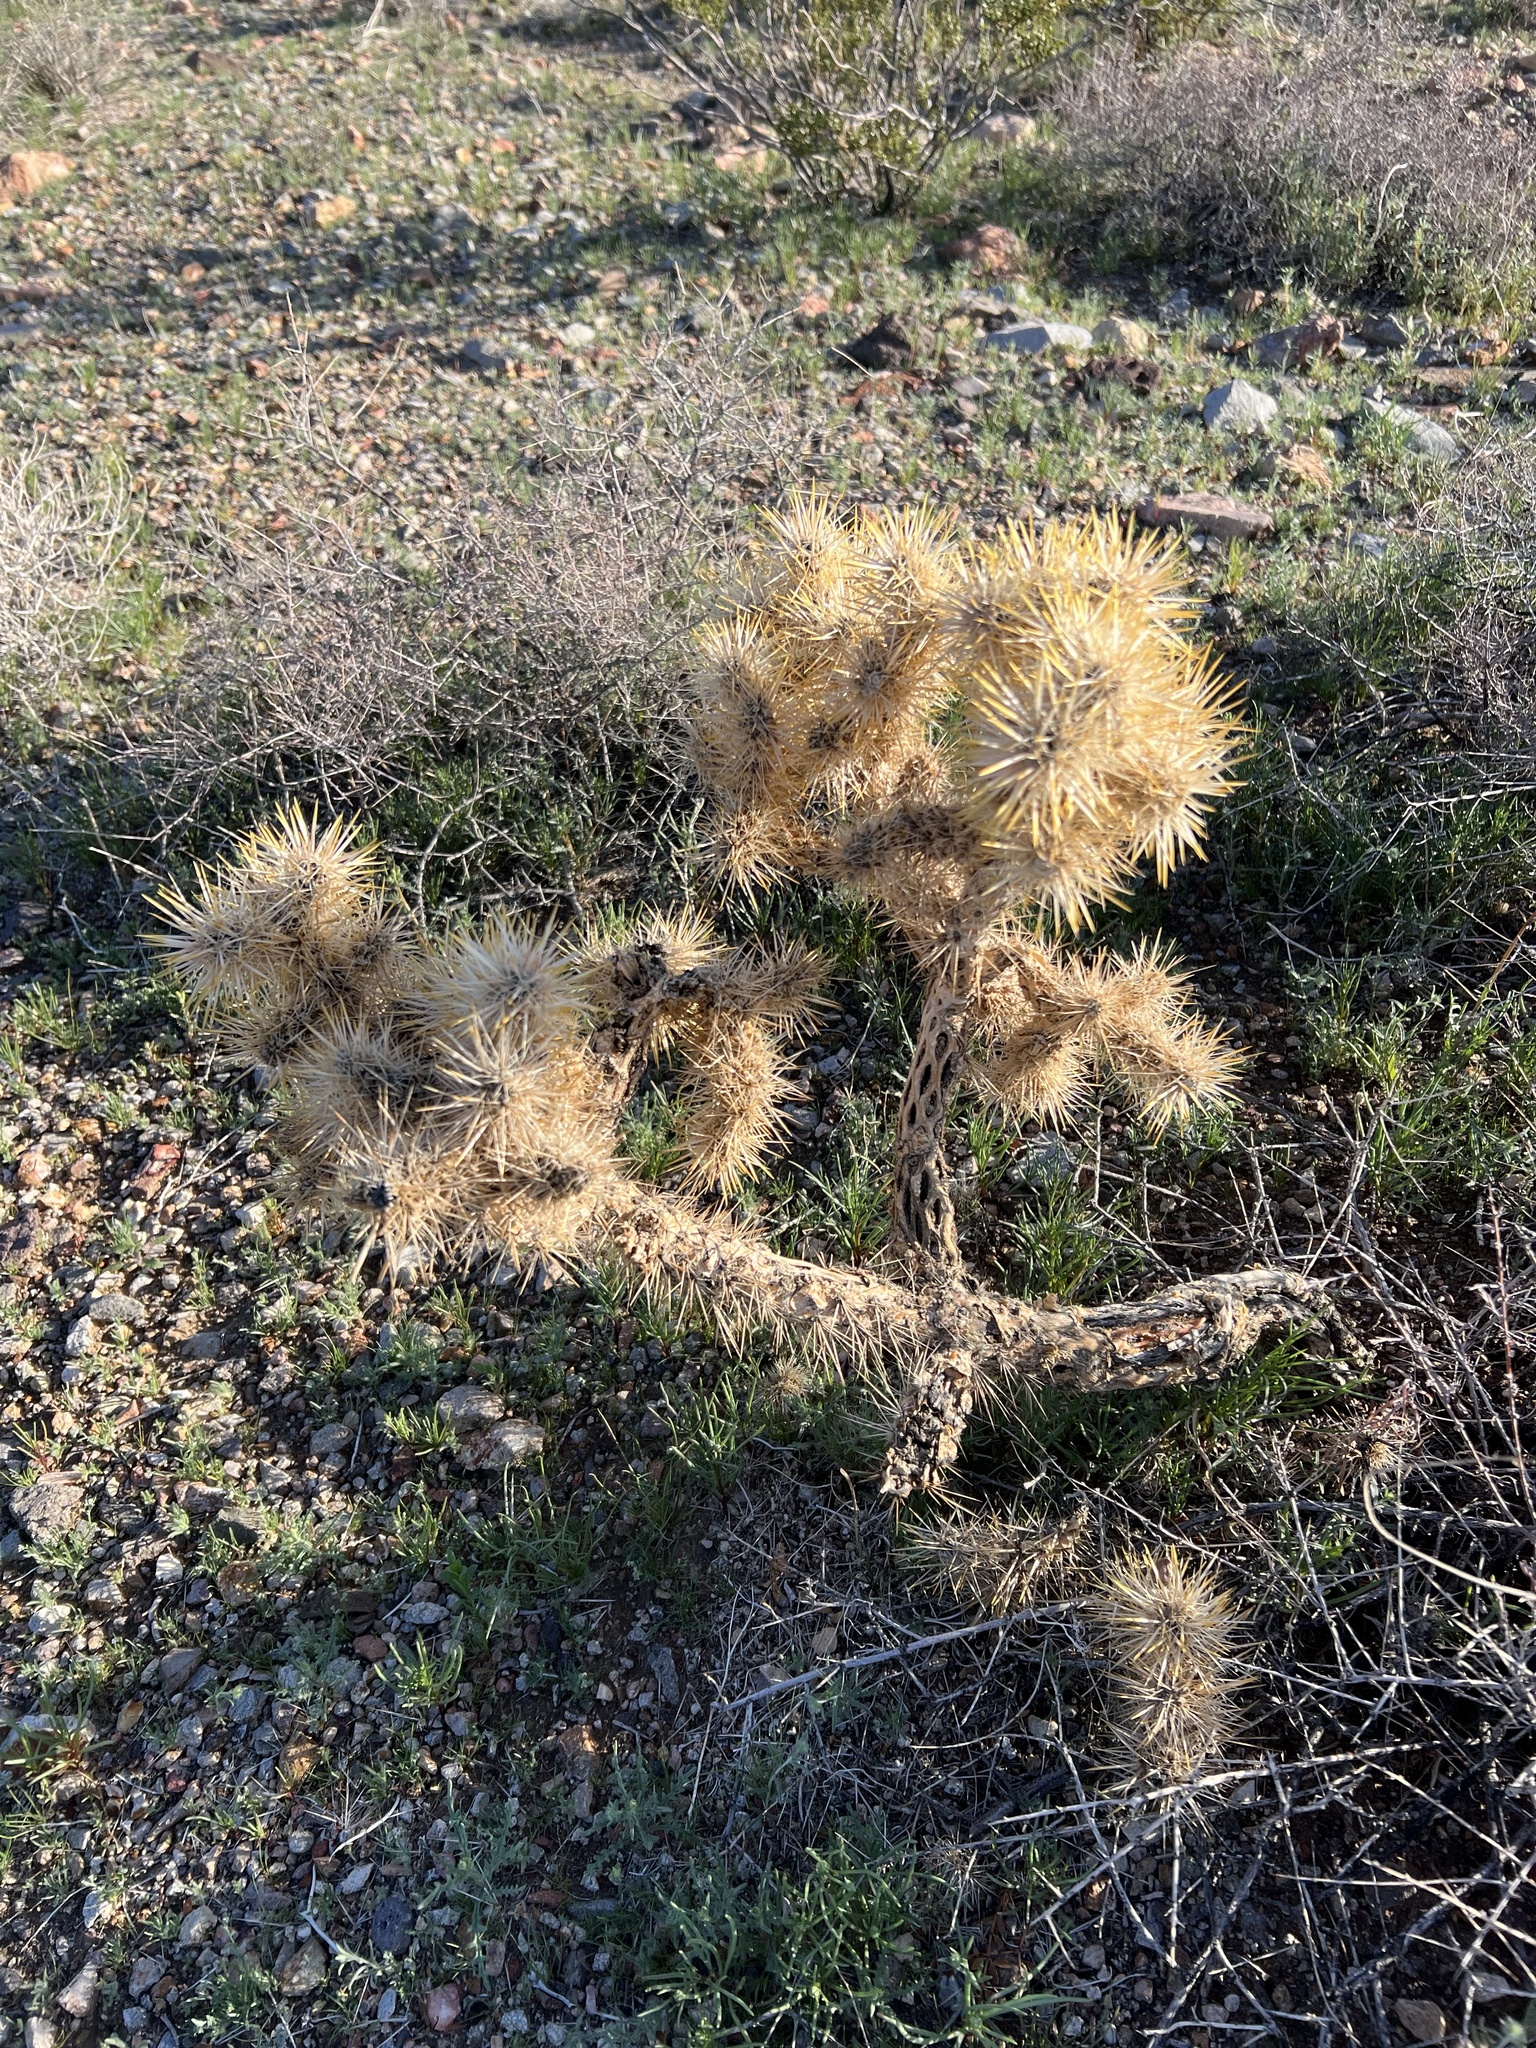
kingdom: Plantae
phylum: Tracheophyta
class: Magnoliopsida
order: Caryophyllales
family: Cactaceae
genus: Cylindropuntia
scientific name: Cylindropuntia echinocarpa
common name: Ground cholla
